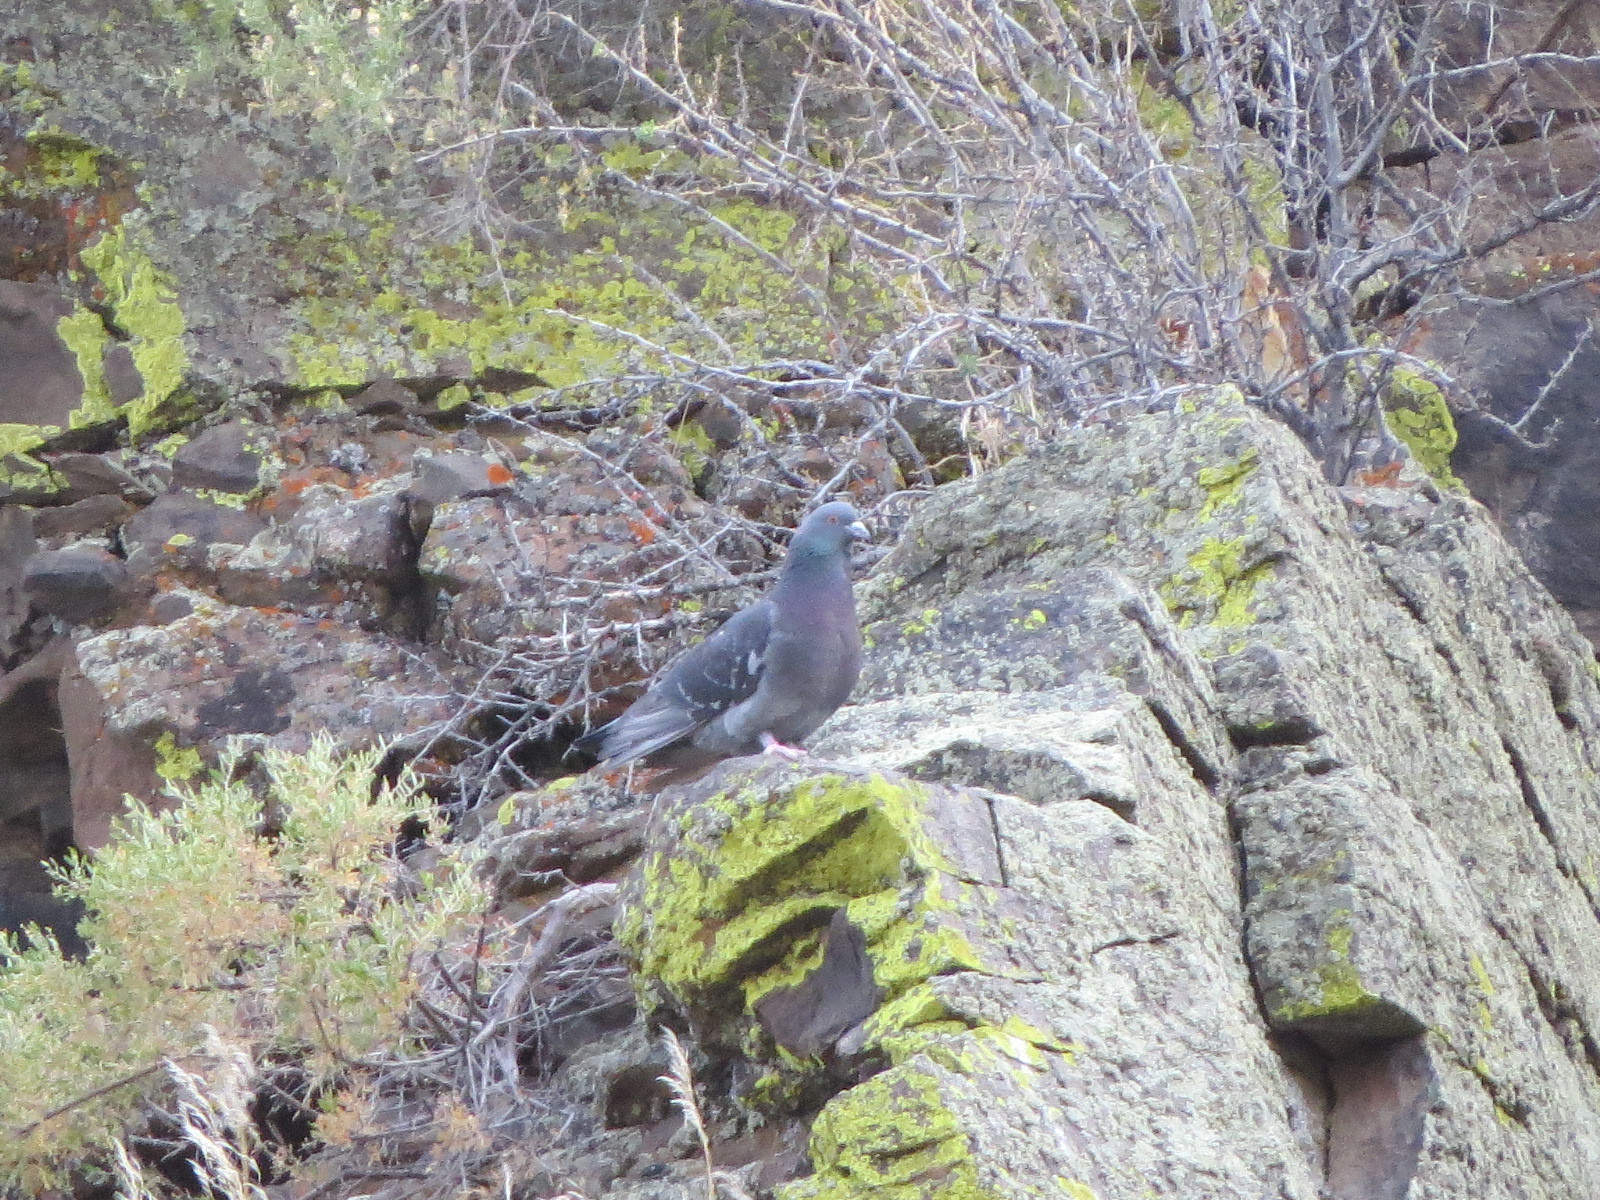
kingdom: Animalia
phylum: Chordata
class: Aves
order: Columbiformes
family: Columbidae
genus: Columba
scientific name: Columba livia
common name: Rock pigeon
